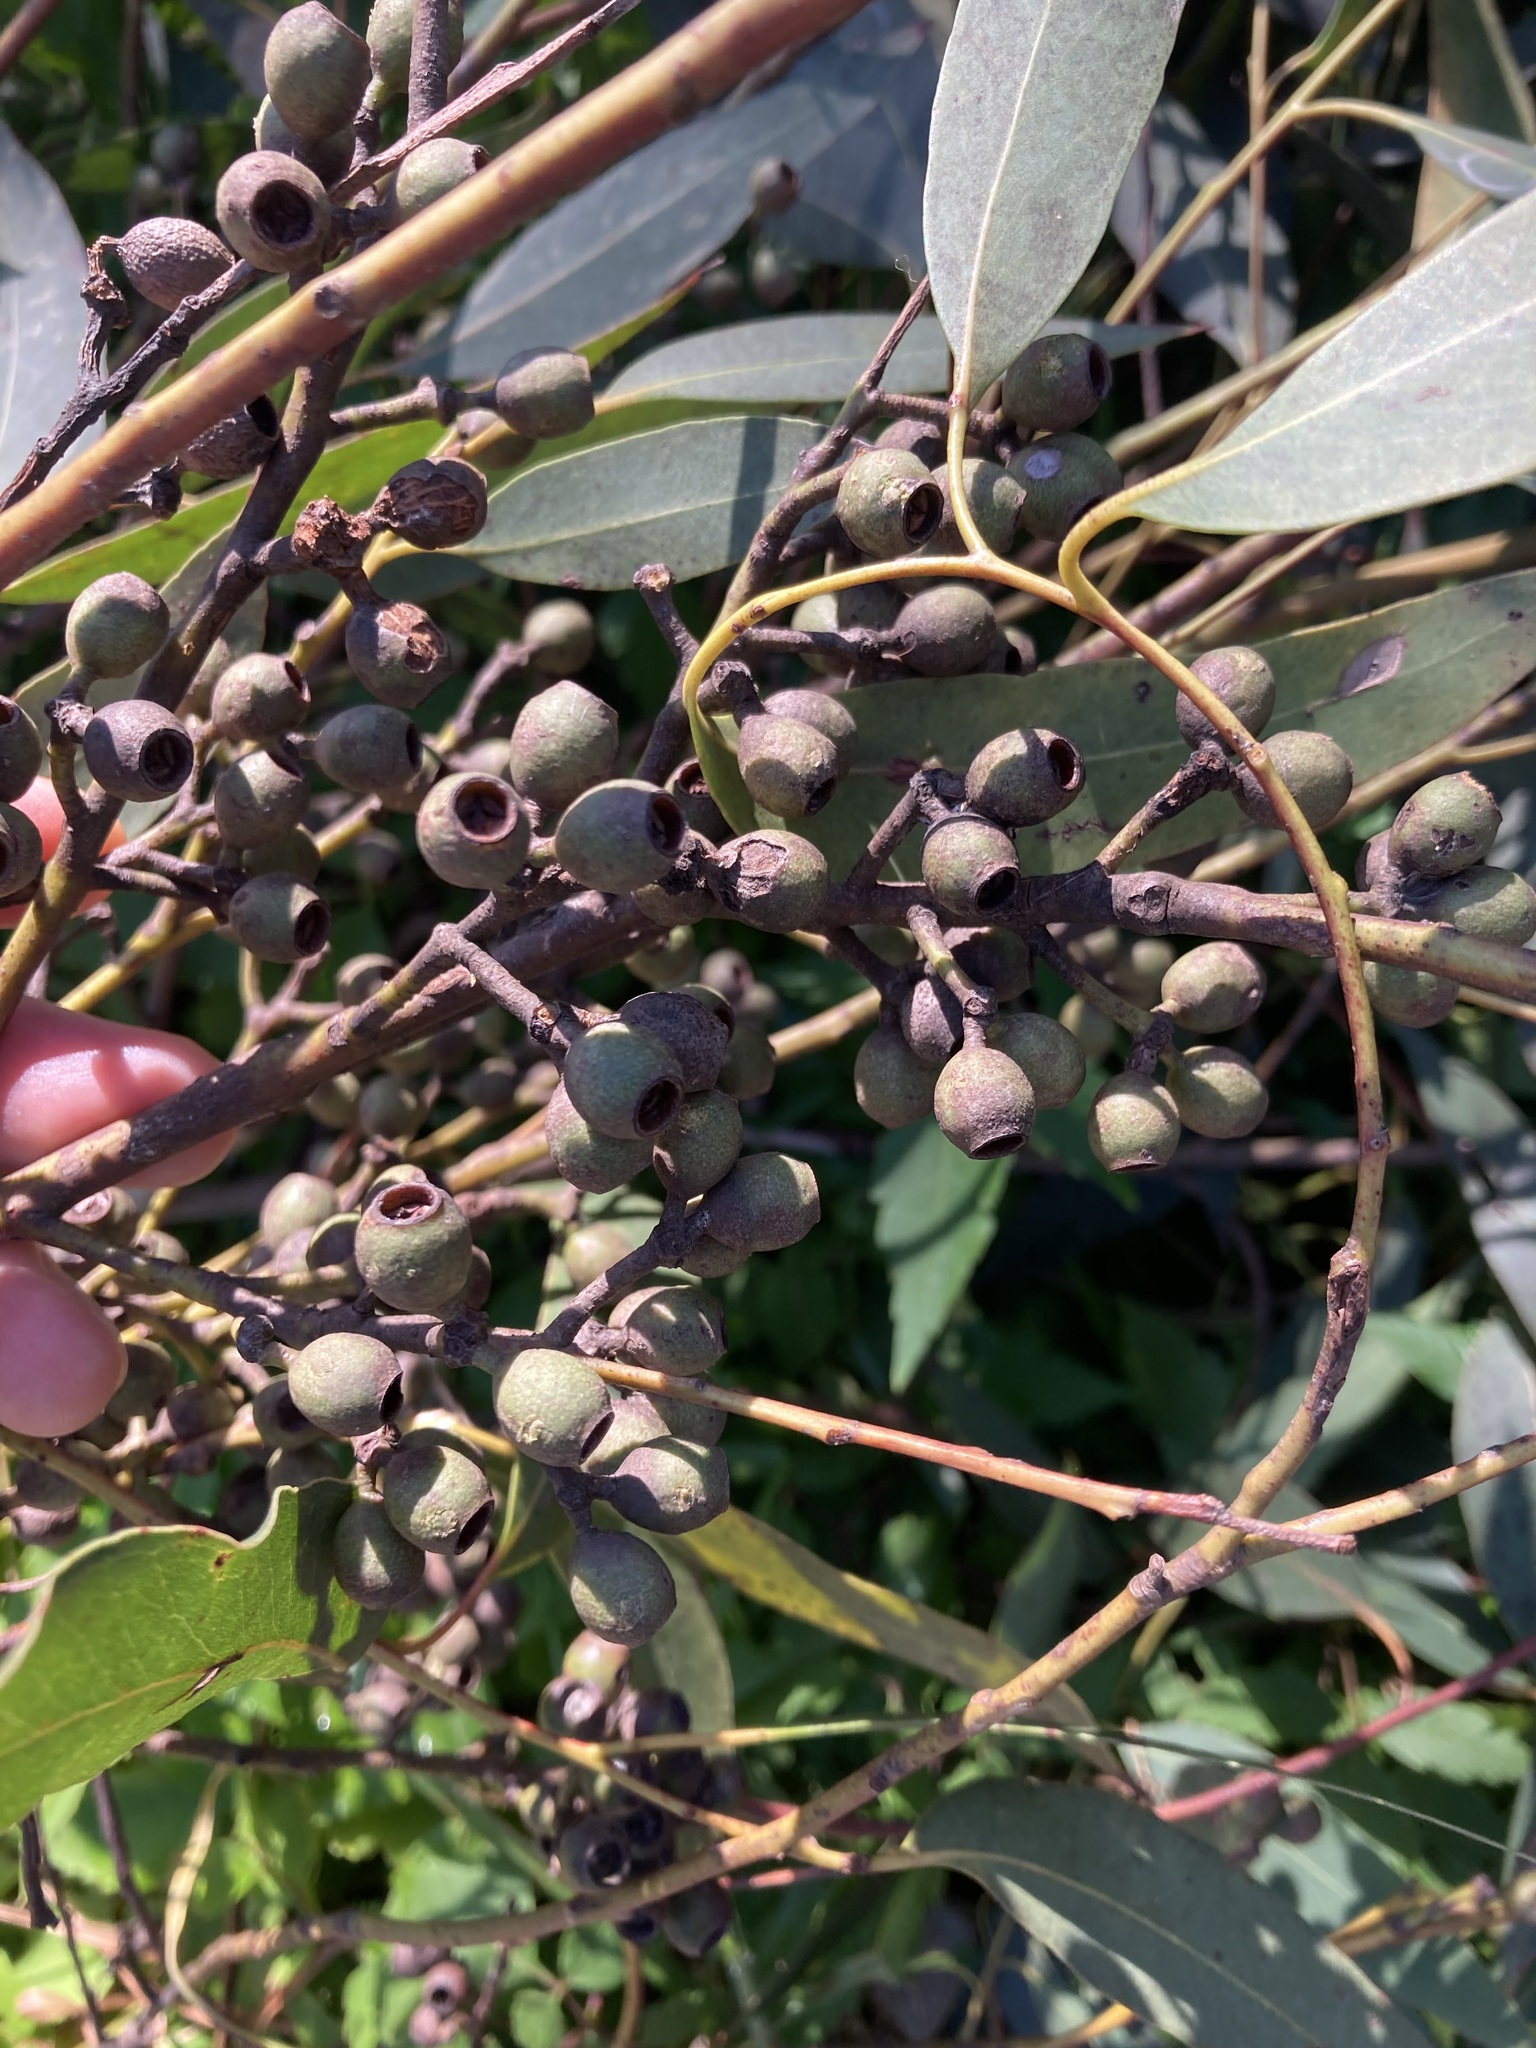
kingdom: Plantae
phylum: Tracheophyta
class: Magnoliopsida
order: Myrtales
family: Myrtaceae
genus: Eucalyptus
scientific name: Eucalyptus piperita
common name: Sydney peppermint
